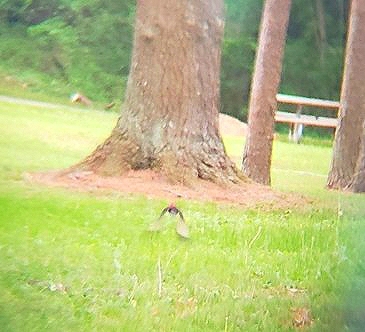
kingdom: Animalia
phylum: Chordata
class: Aves
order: Piciformes
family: Picidae
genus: Dryocopus
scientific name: Dryocopus pileatus
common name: Pileated woodpecker
